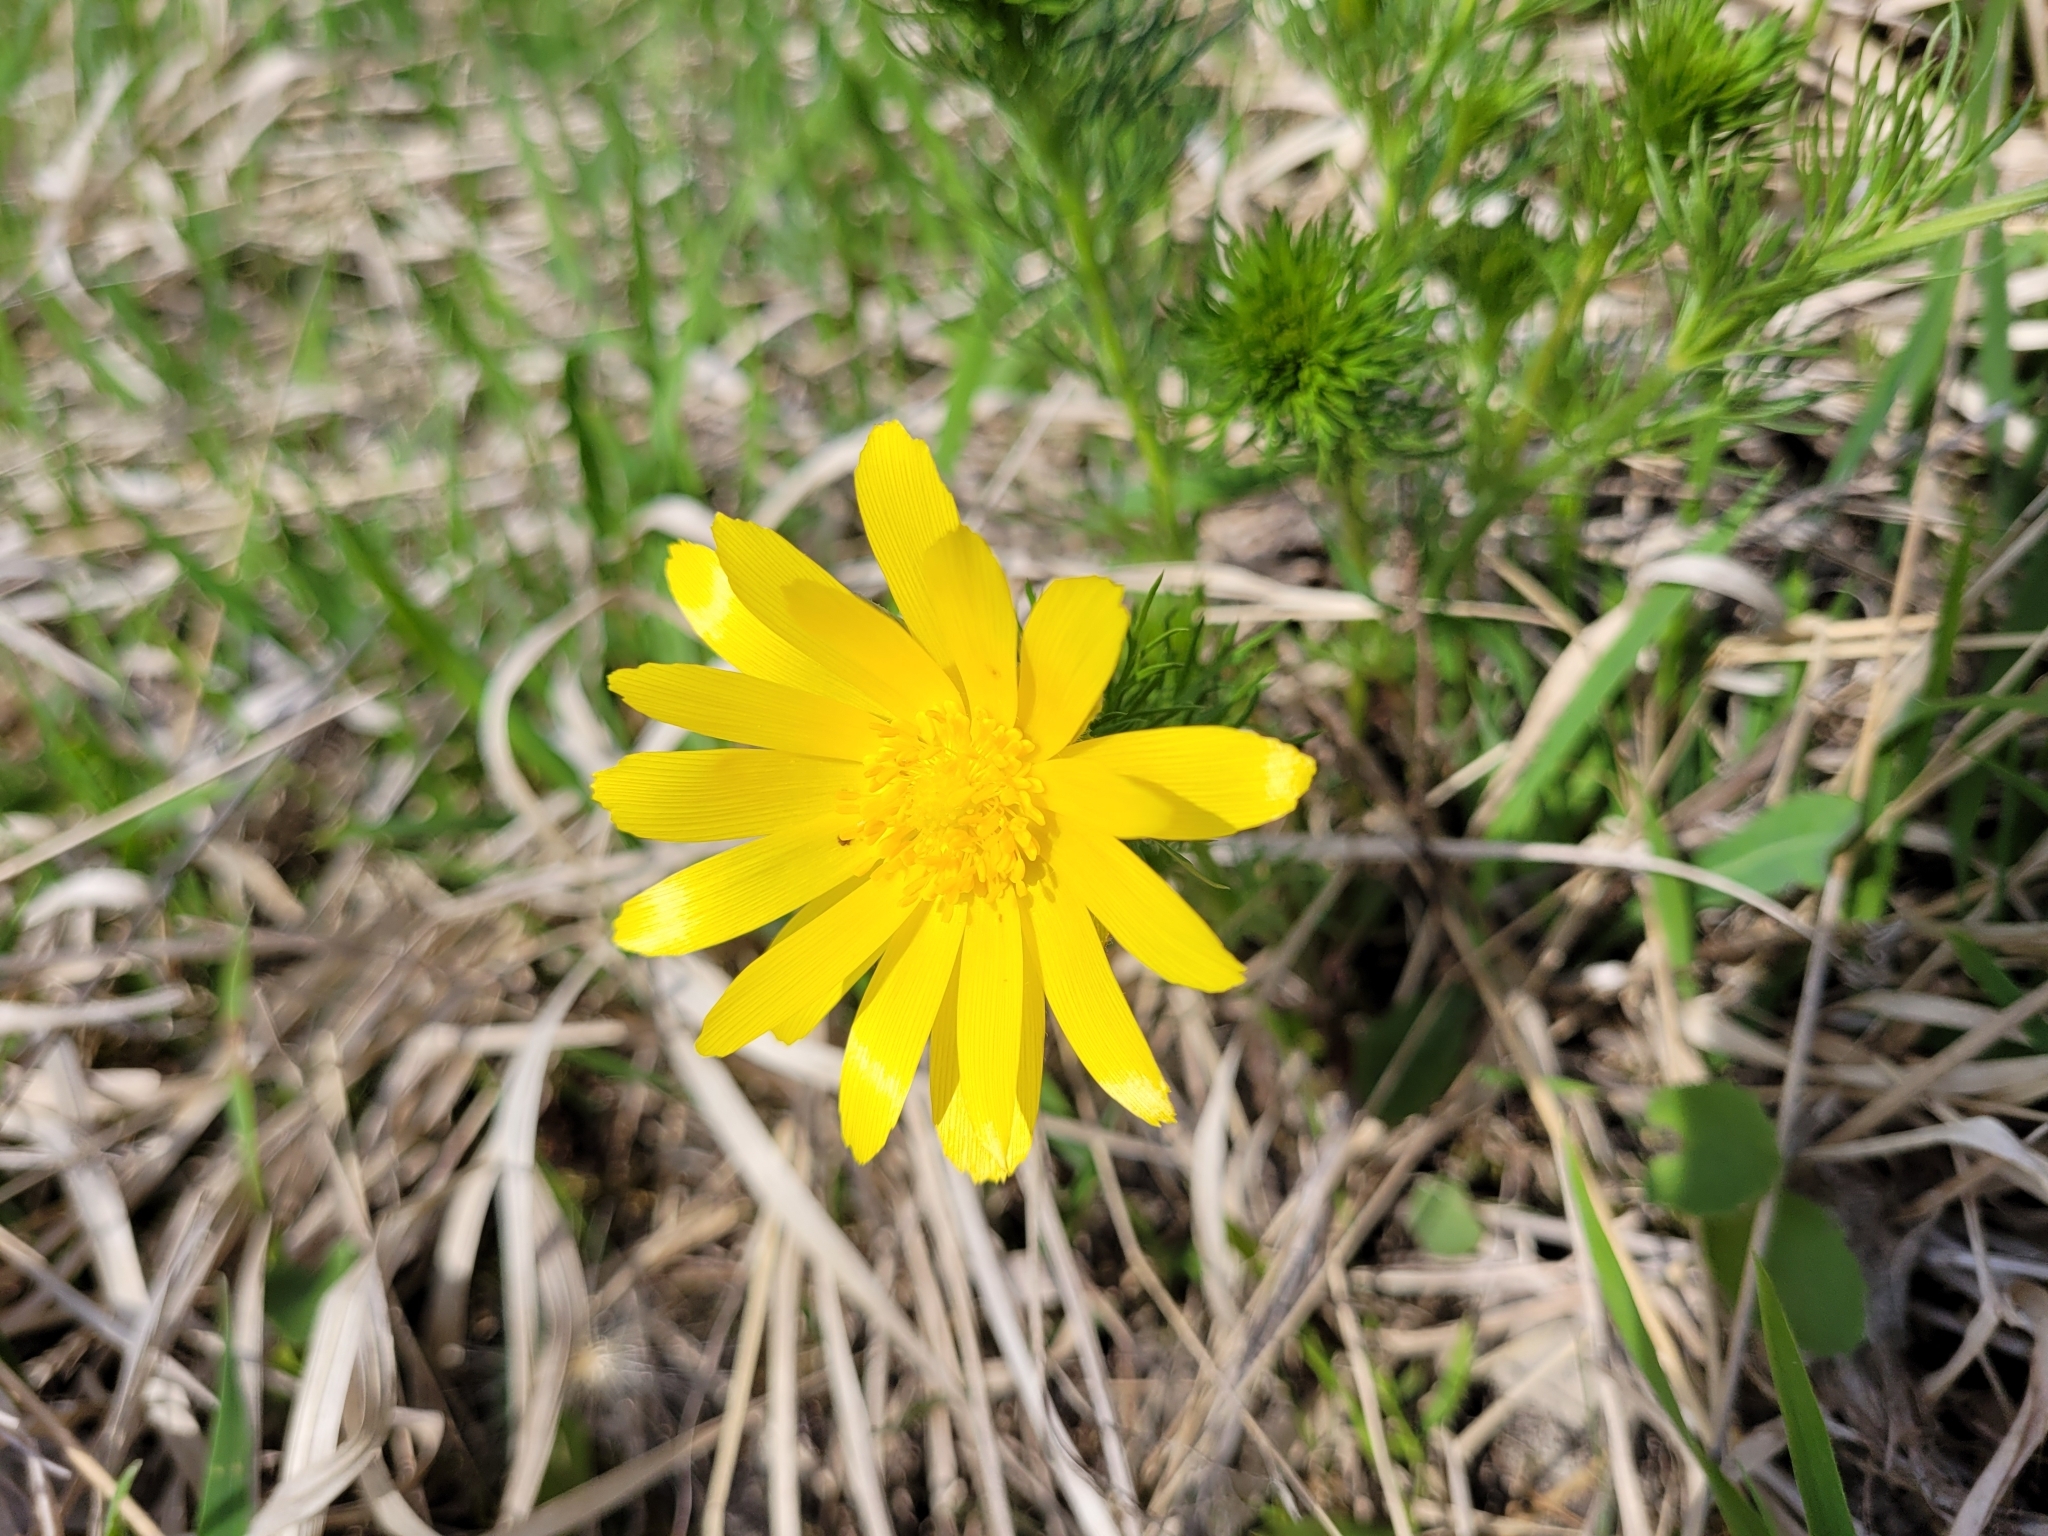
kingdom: Plantae
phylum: Tracheophyta
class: Magnoliopsida
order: Ranunculales
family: Ranunculaceae
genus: Adonis
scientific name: Adonis vernalis
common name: Yellow pheasants-eye
